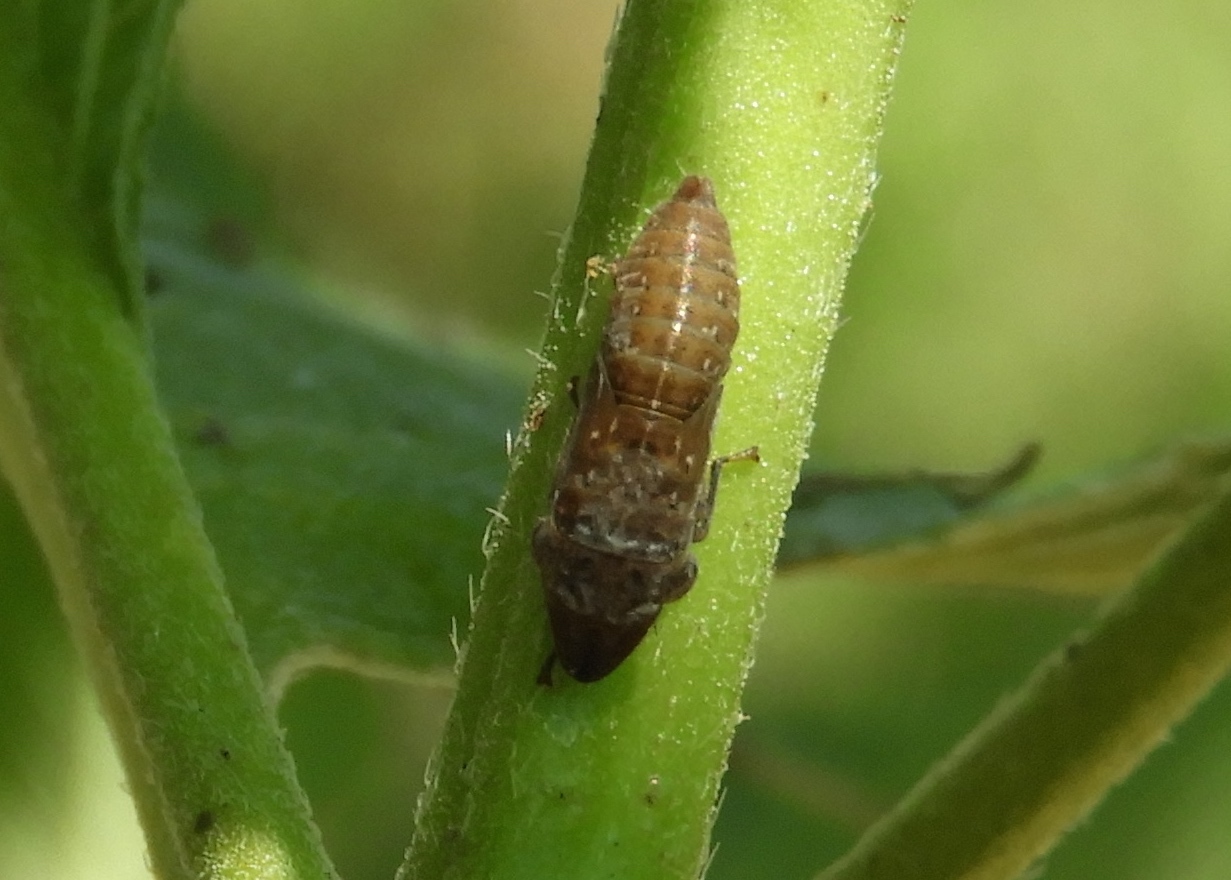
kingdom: Animalia
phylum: Arthropoda
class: Insecta
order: Hemiptera
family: Cicadellidae
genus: Homalodisca
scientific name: Homalodisca
